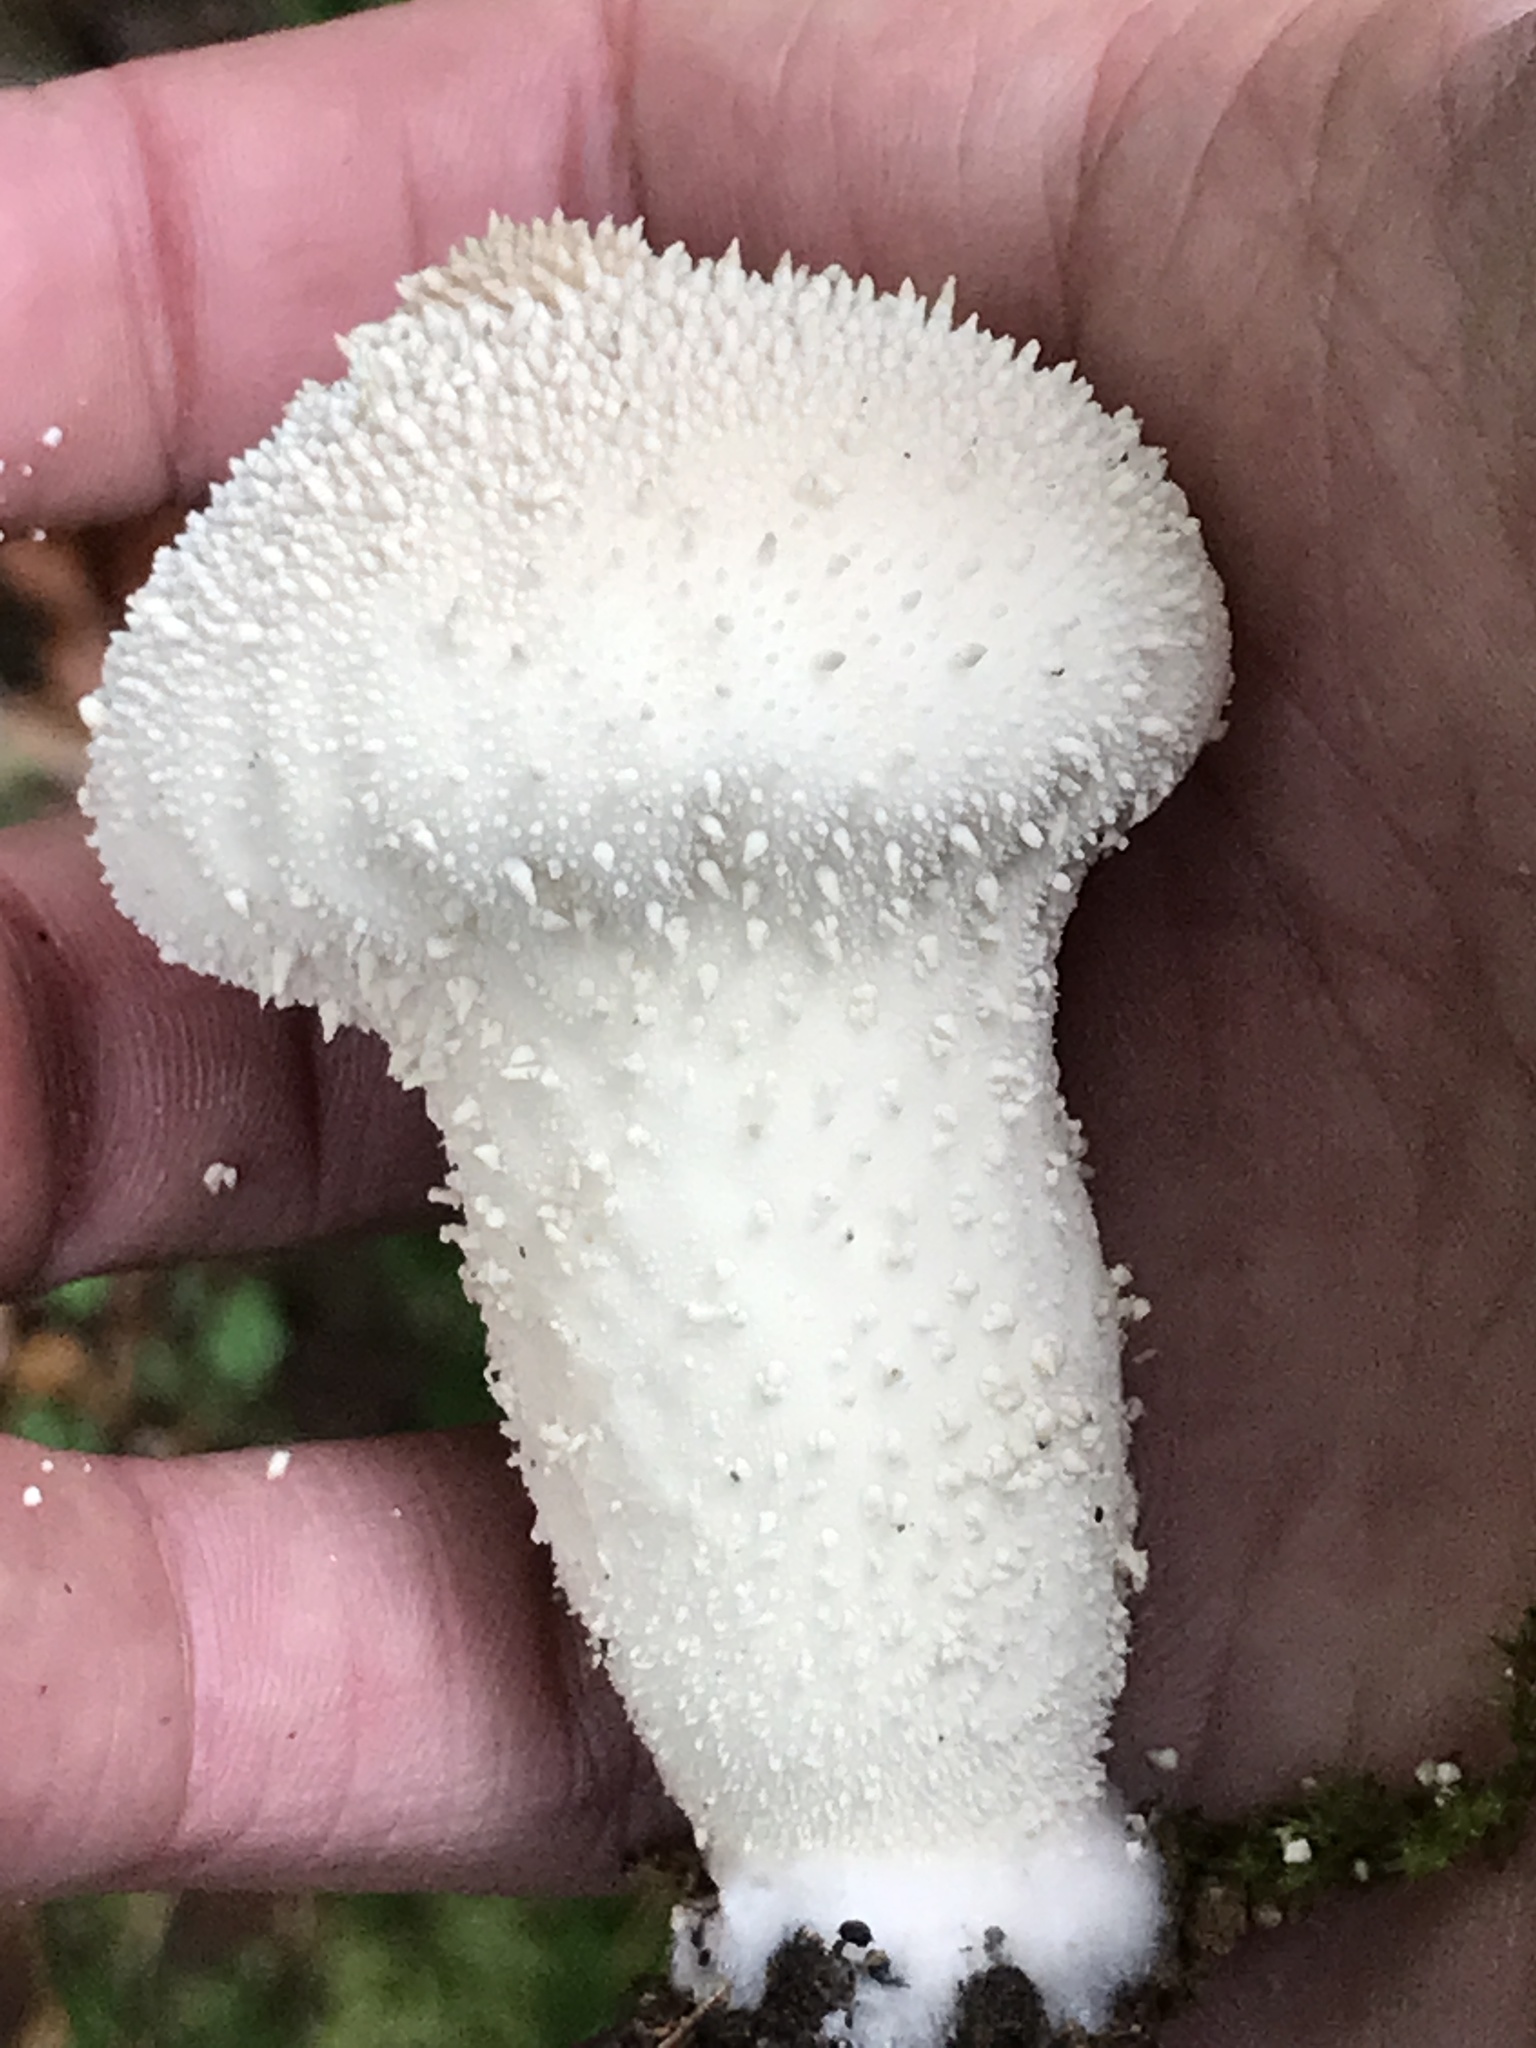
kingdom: Fungi
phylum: Basidiomycota
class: Agaricomycetes
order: Agaricales
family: Lycoperdaceae
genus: Lycoperdon
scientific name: Lycoperdon perlatum
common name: Common puffball
